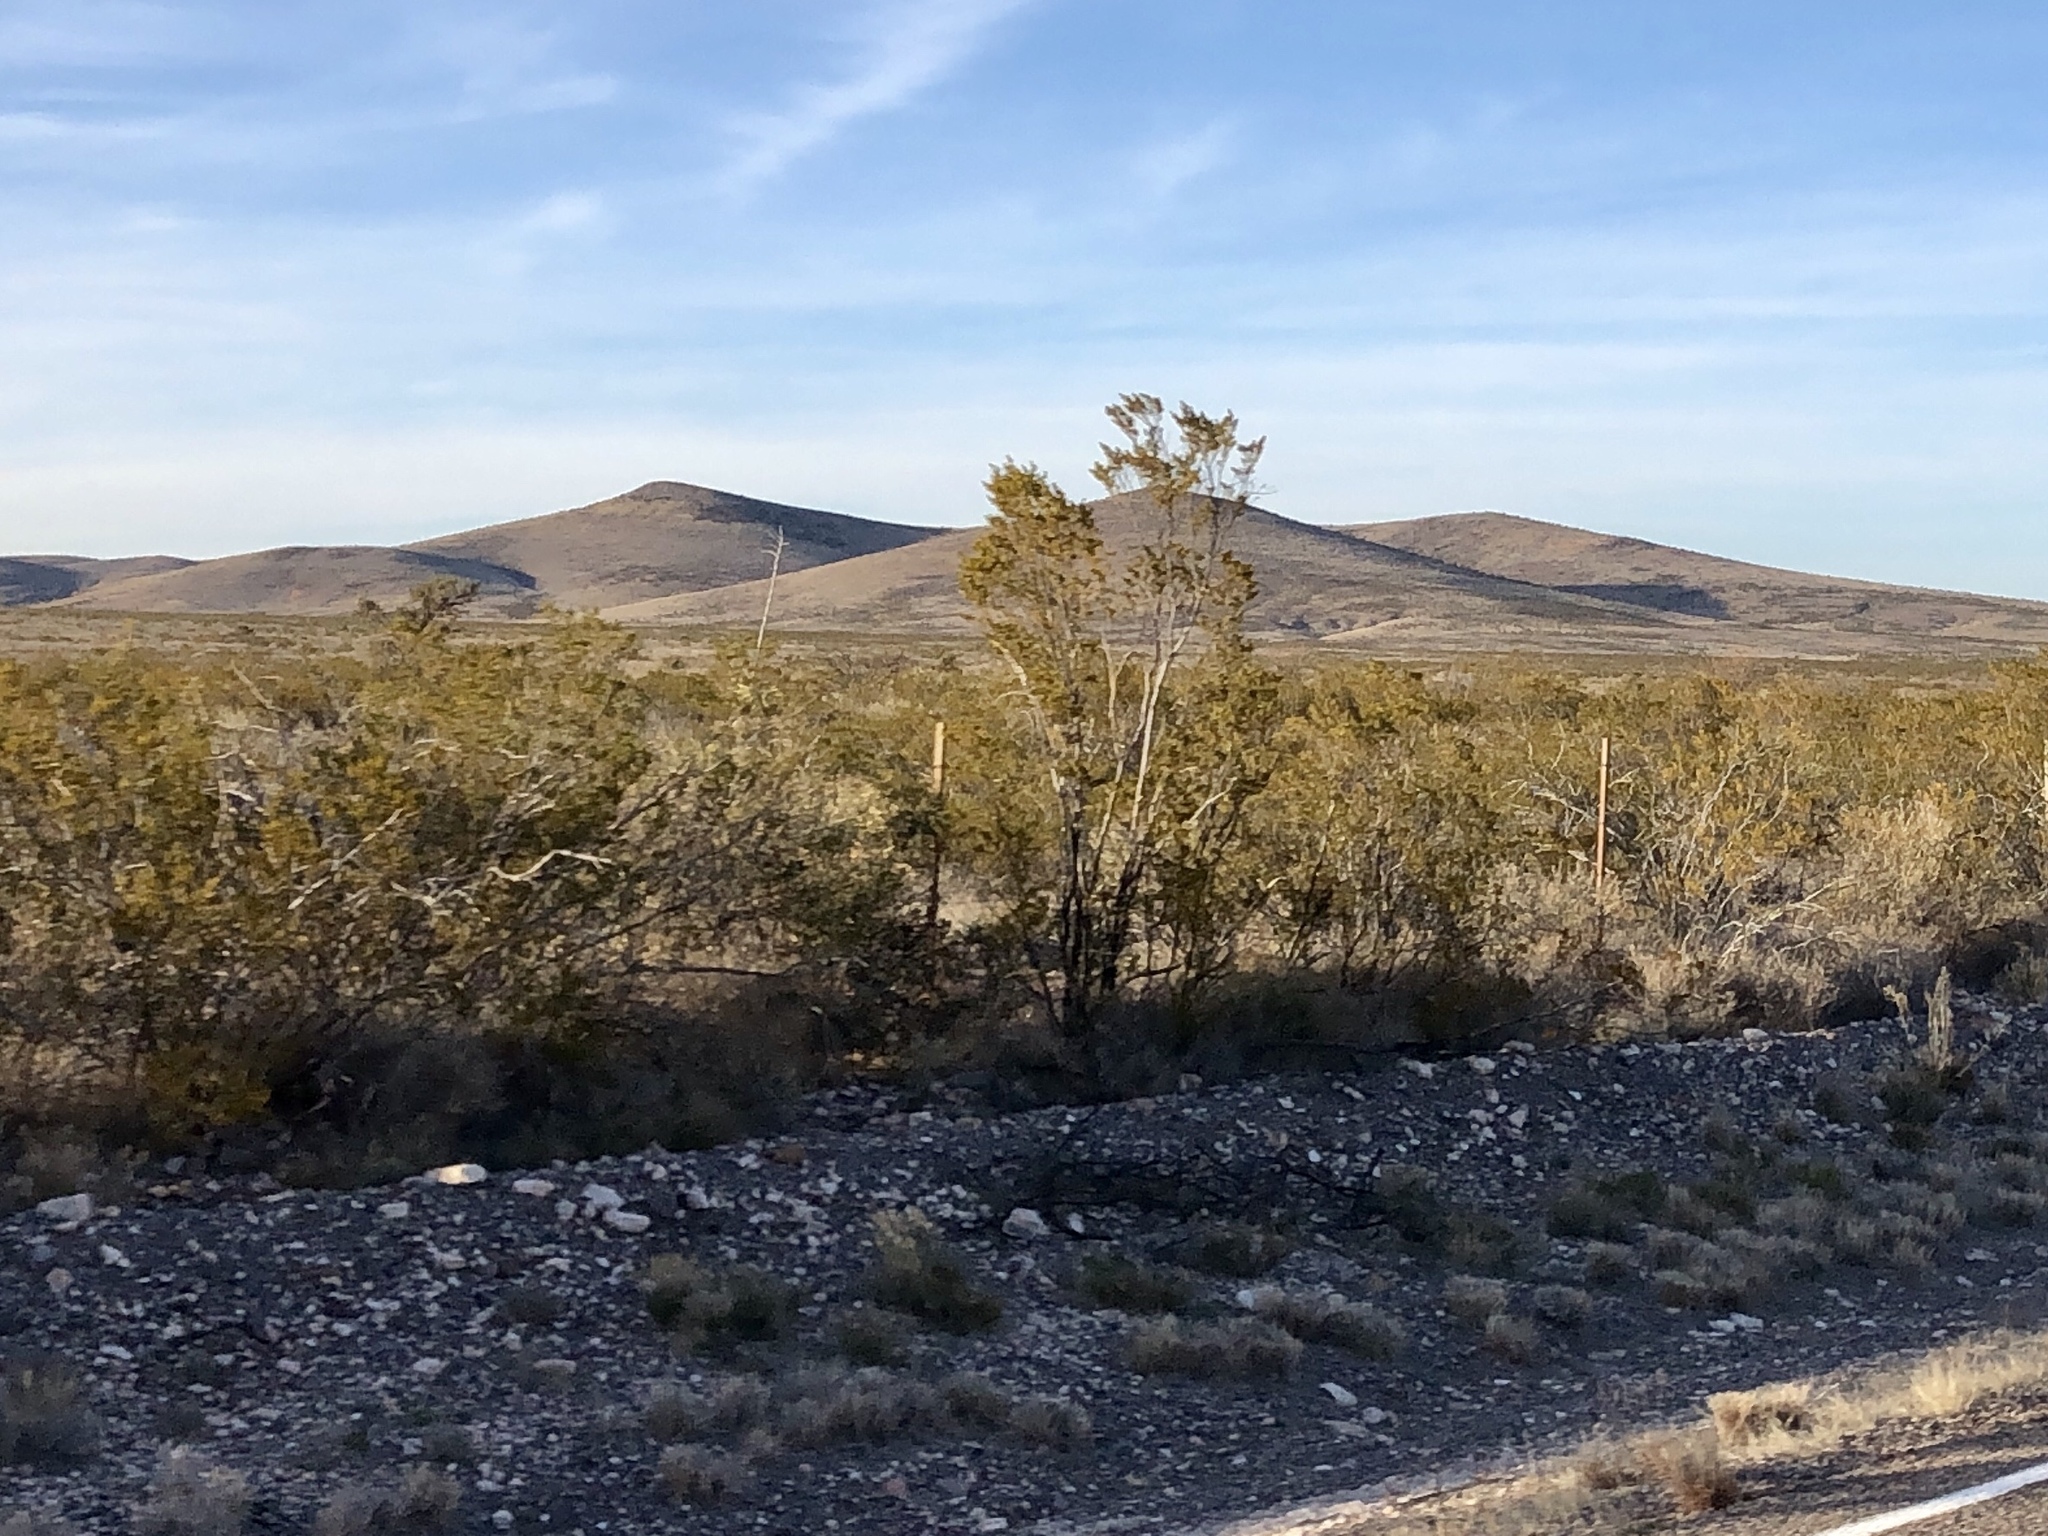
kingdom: Plantae
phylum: Tracheophyta
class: Magnoliopsida
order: Zygophyllales
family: Zygophyllaceae
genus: Larrea
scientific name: Larrea tridentata
